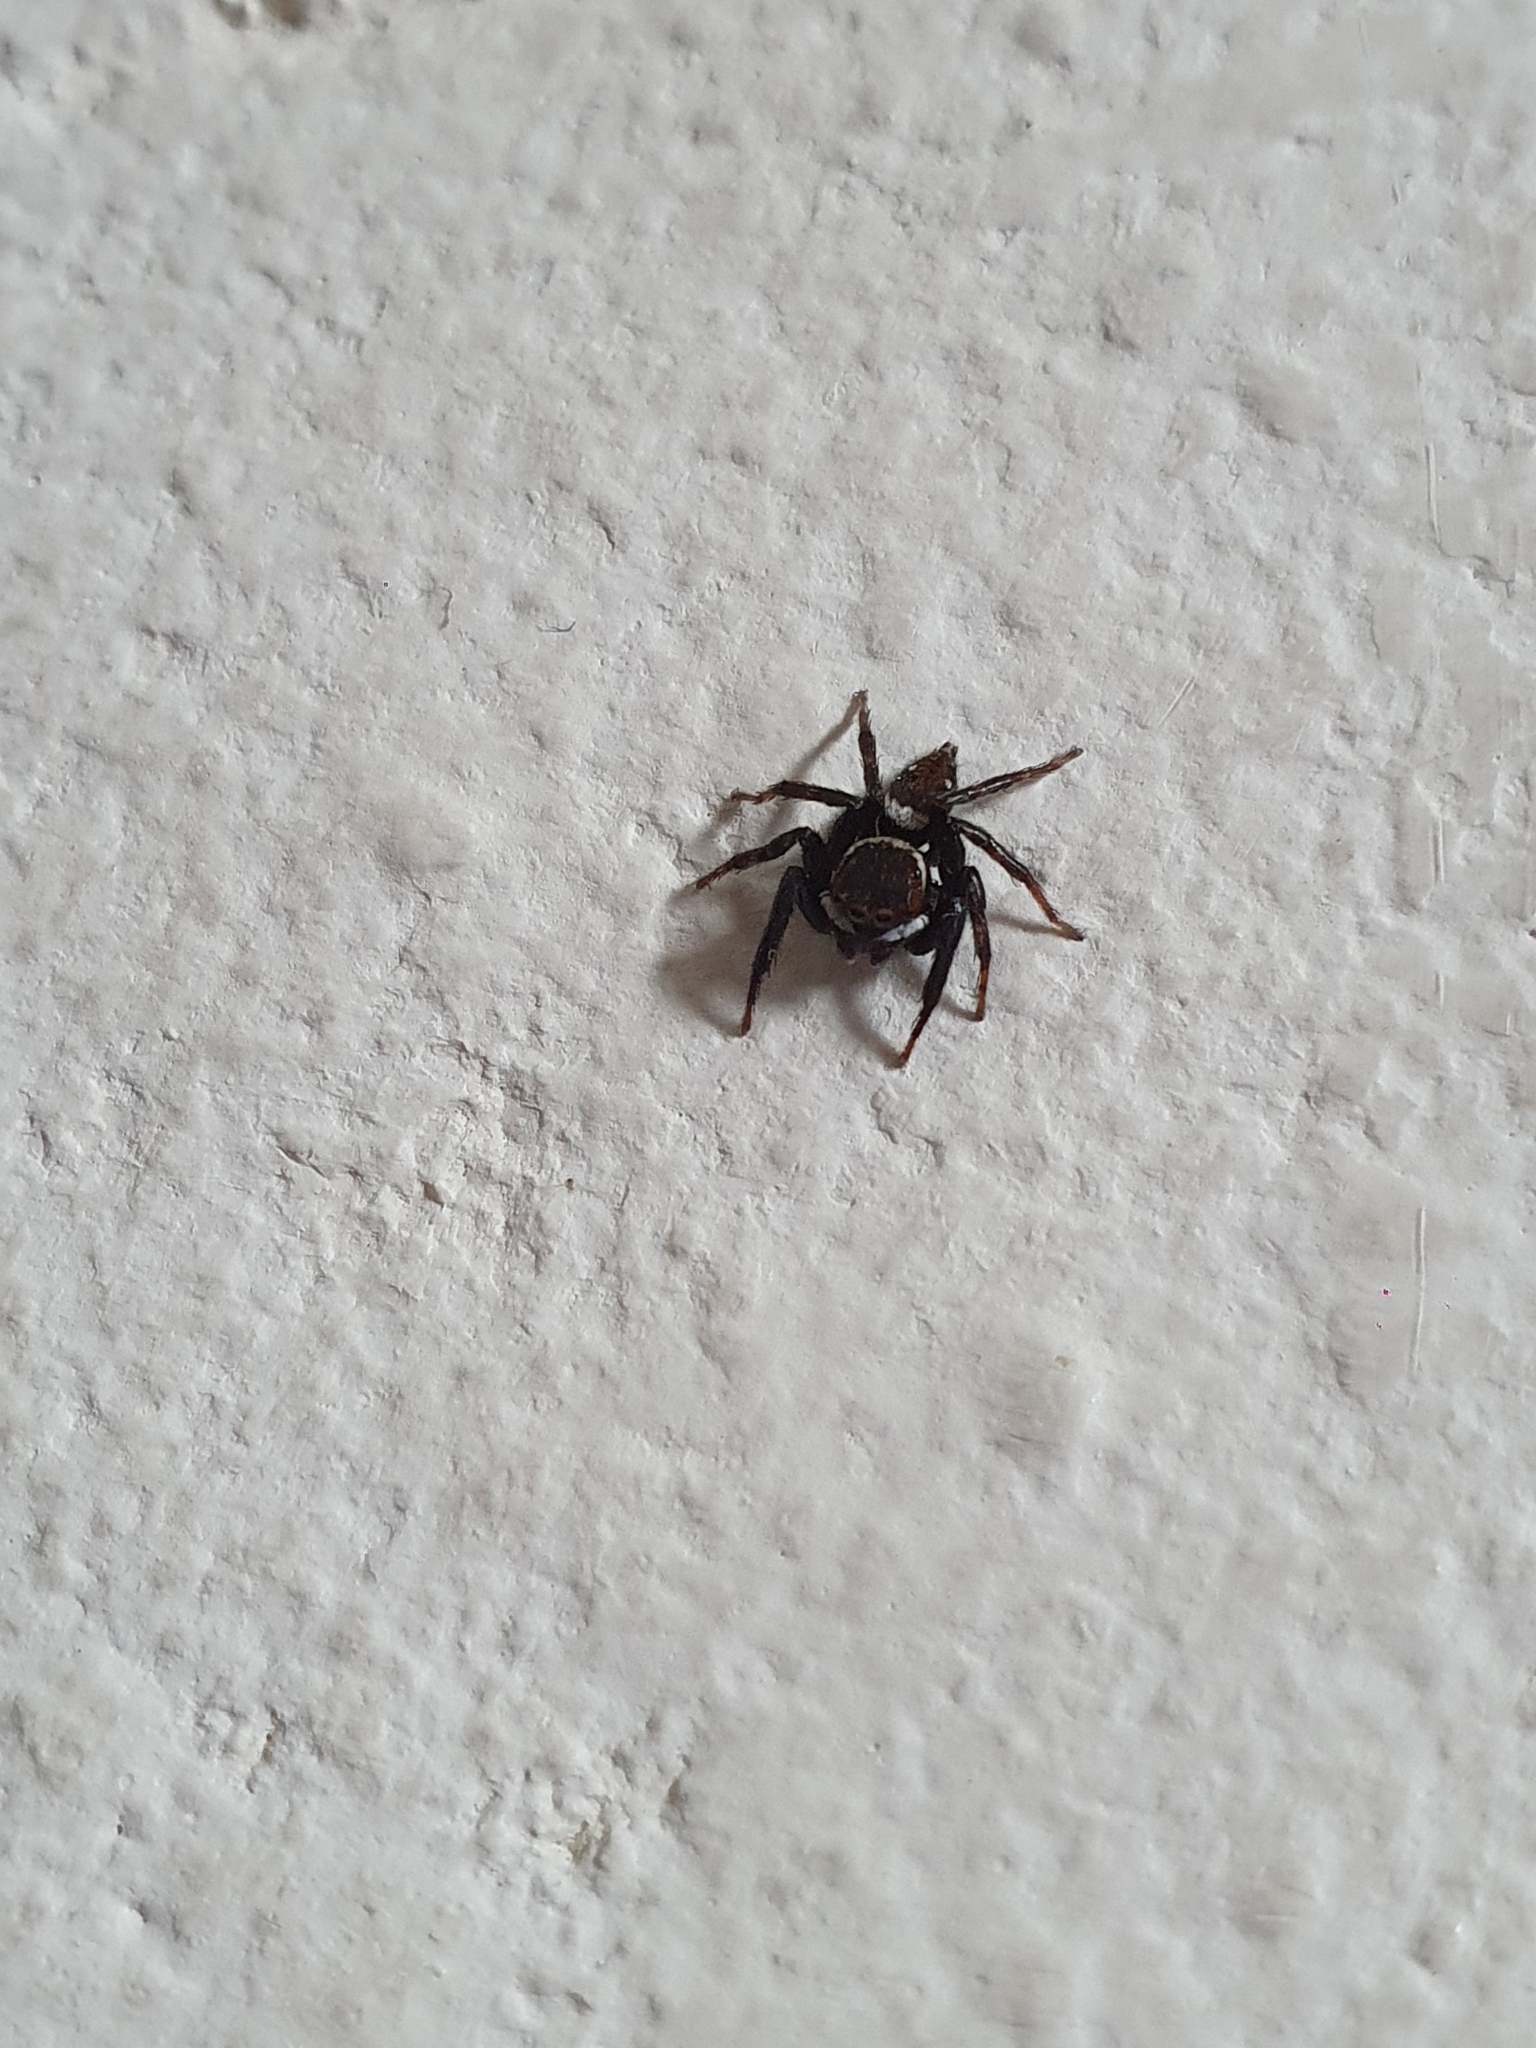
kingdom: Animalia
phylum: Arthropoda
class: Arachnida
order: Araneae
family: Salticidae
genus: Hasarius
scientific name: Hasarius adansoni
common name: Jumping spider
